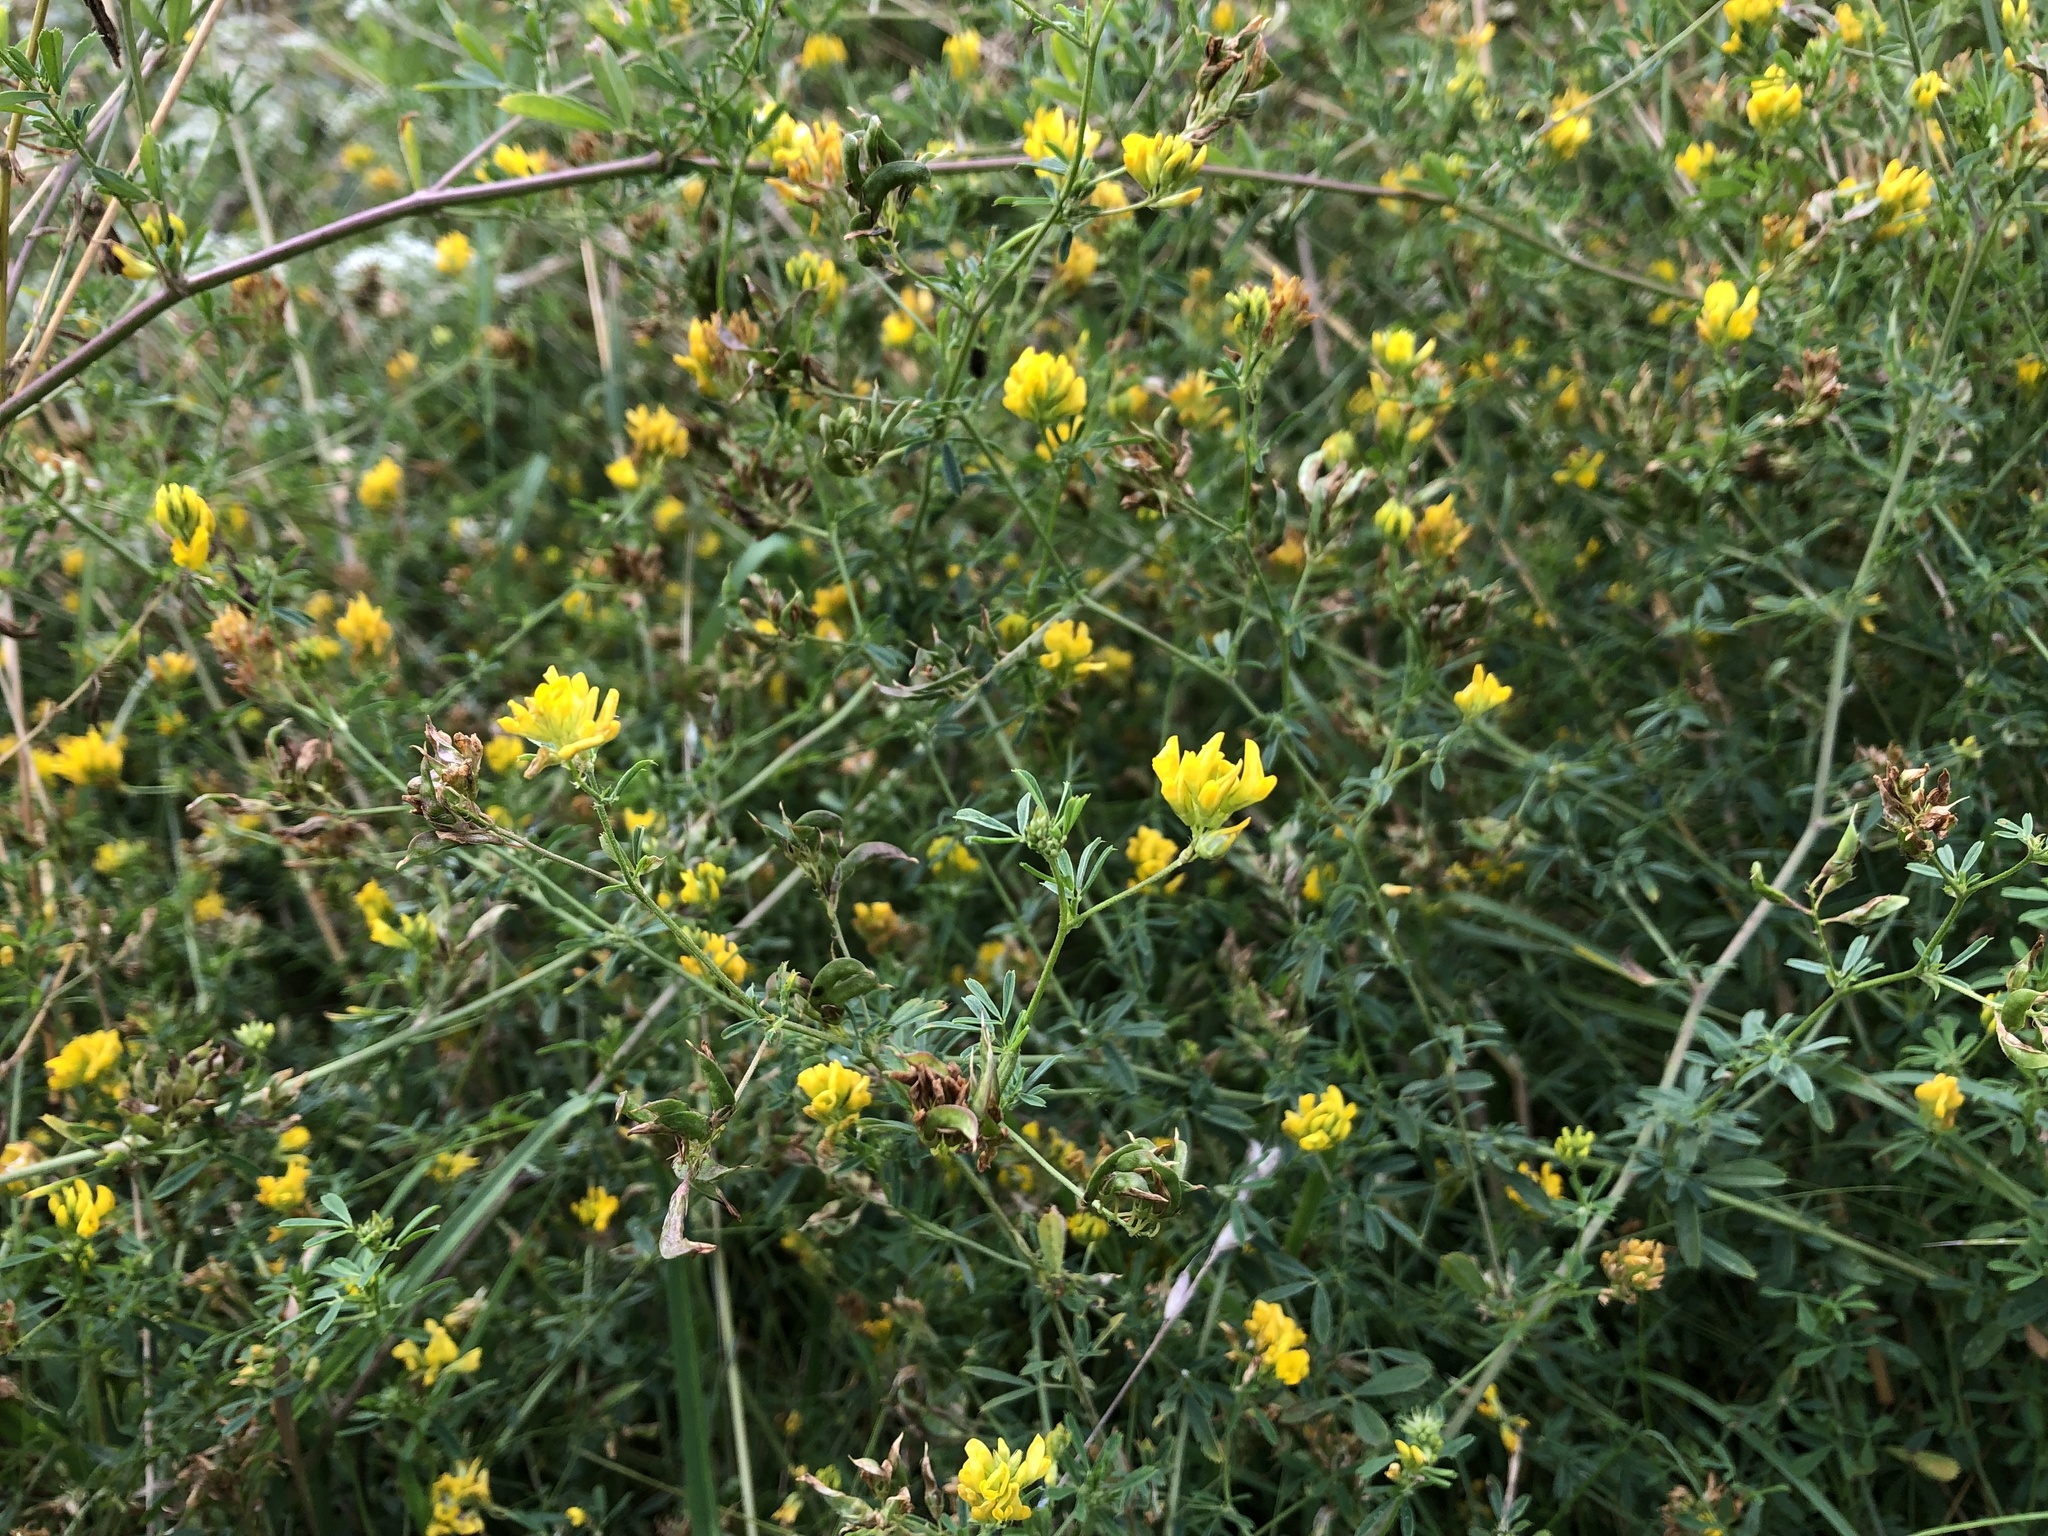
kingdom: Plantae
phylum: Tracheophyta
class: Magnoliopsida
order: Fabales
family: Fabaceae
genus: Medicago
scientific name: Medicago falcata
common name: Sickle medick
